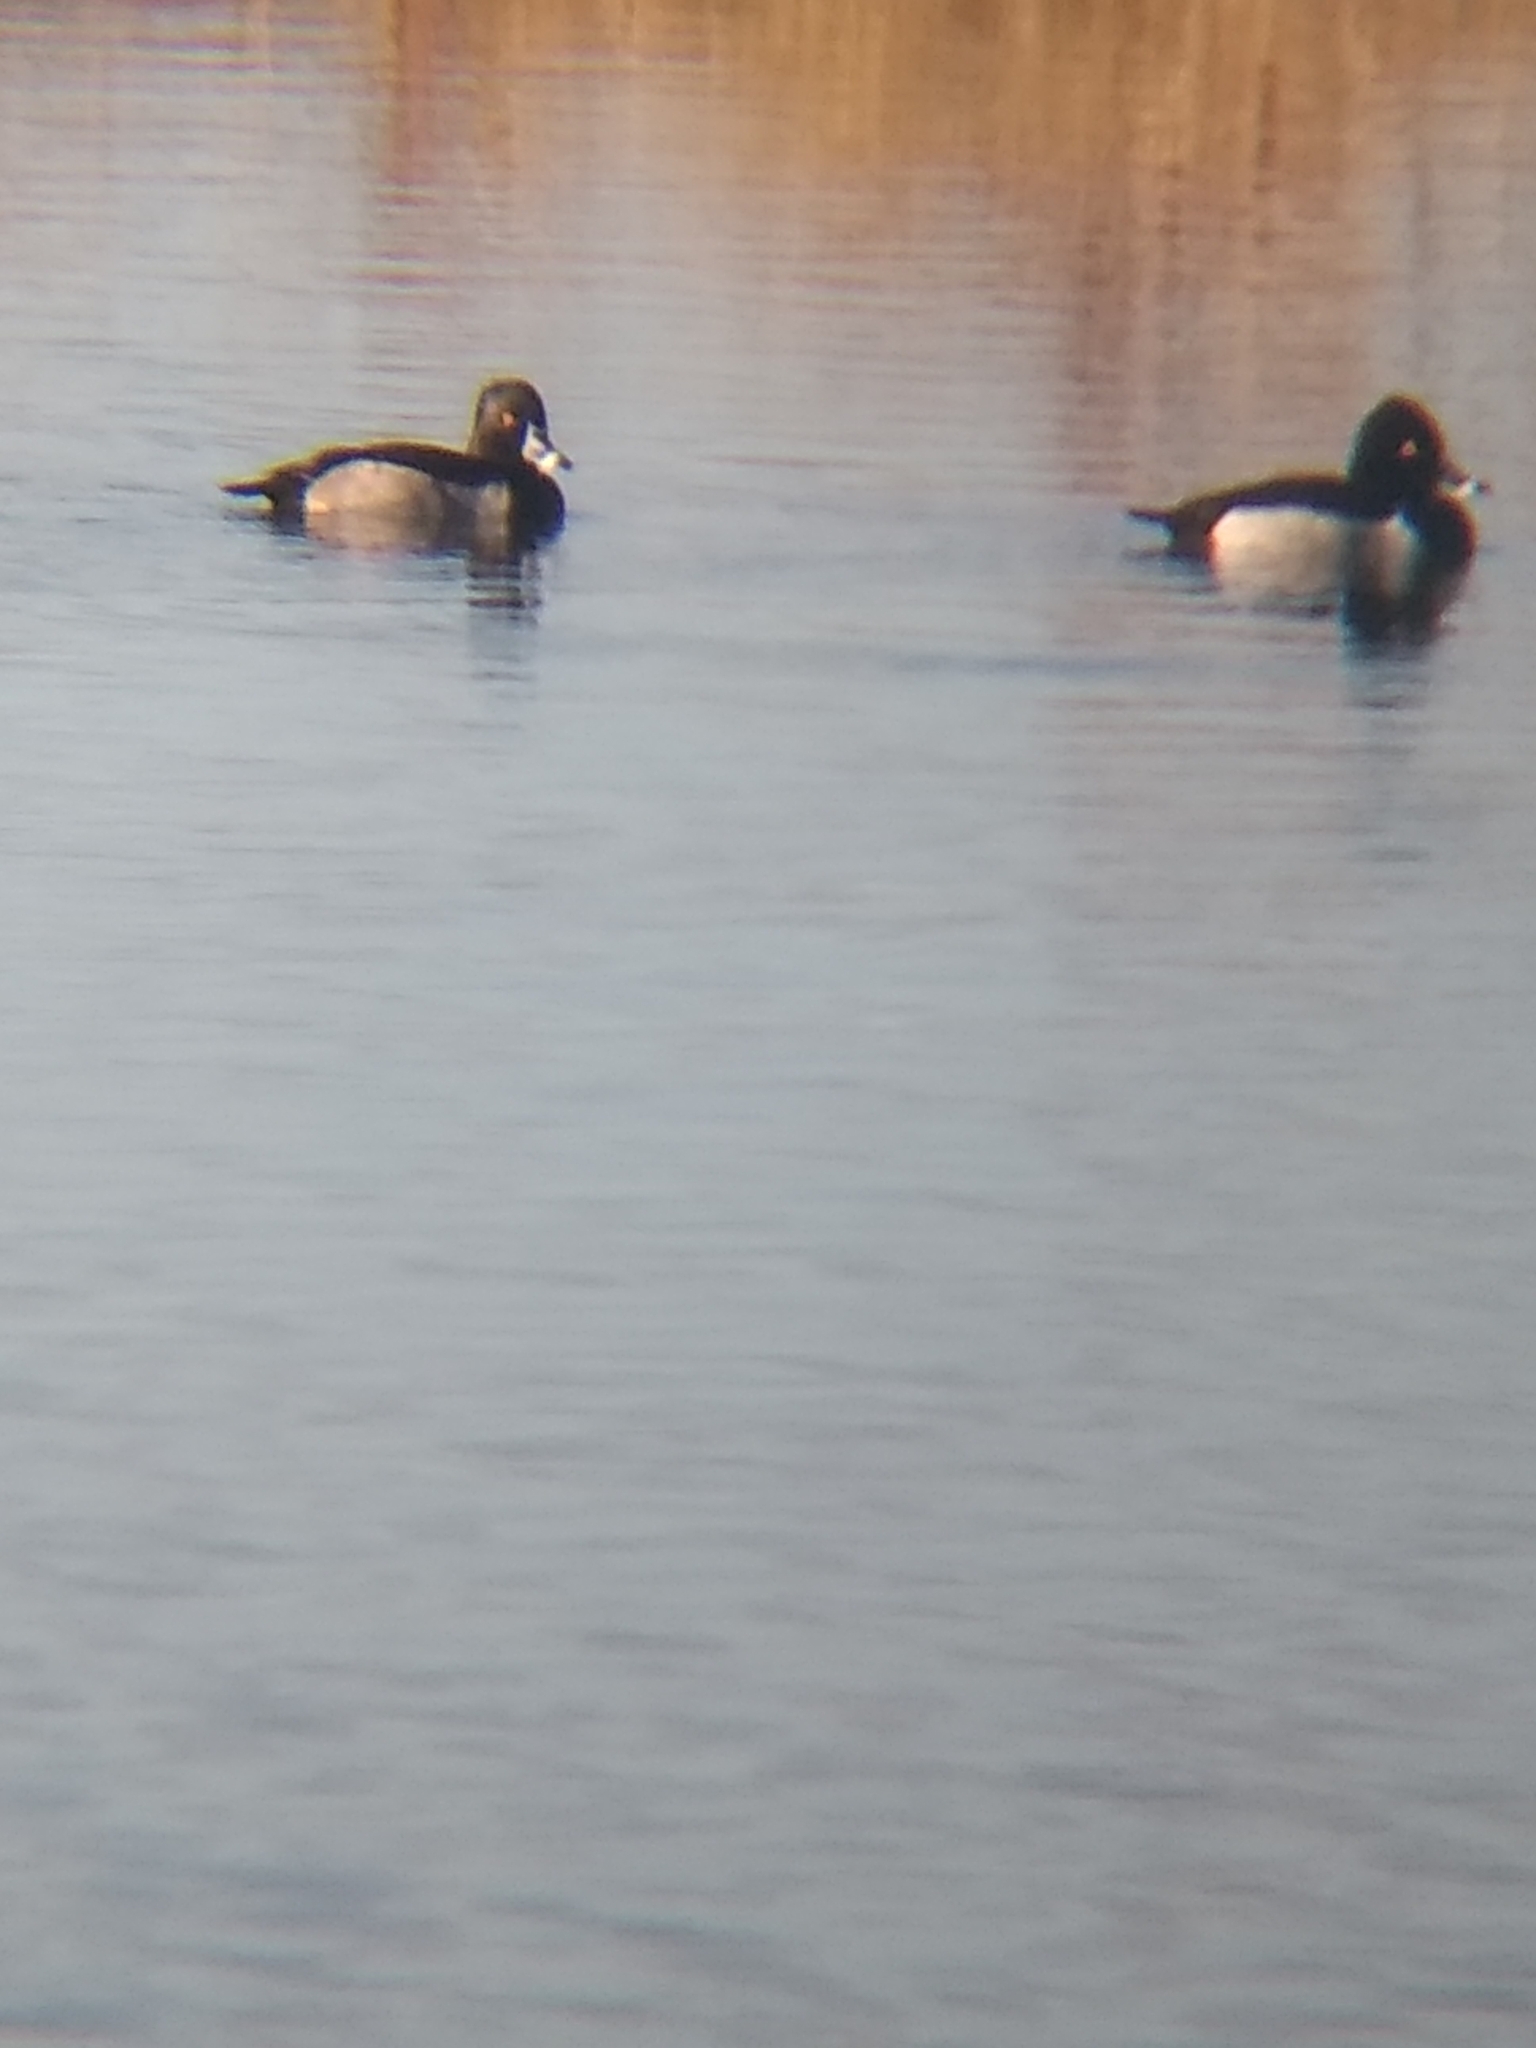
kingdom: Animalia
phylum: Chordata
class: Aves
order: Anseriformes
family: Anatidae
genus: Aythya
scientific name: Aythya collaris
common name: Ring-necked duck
